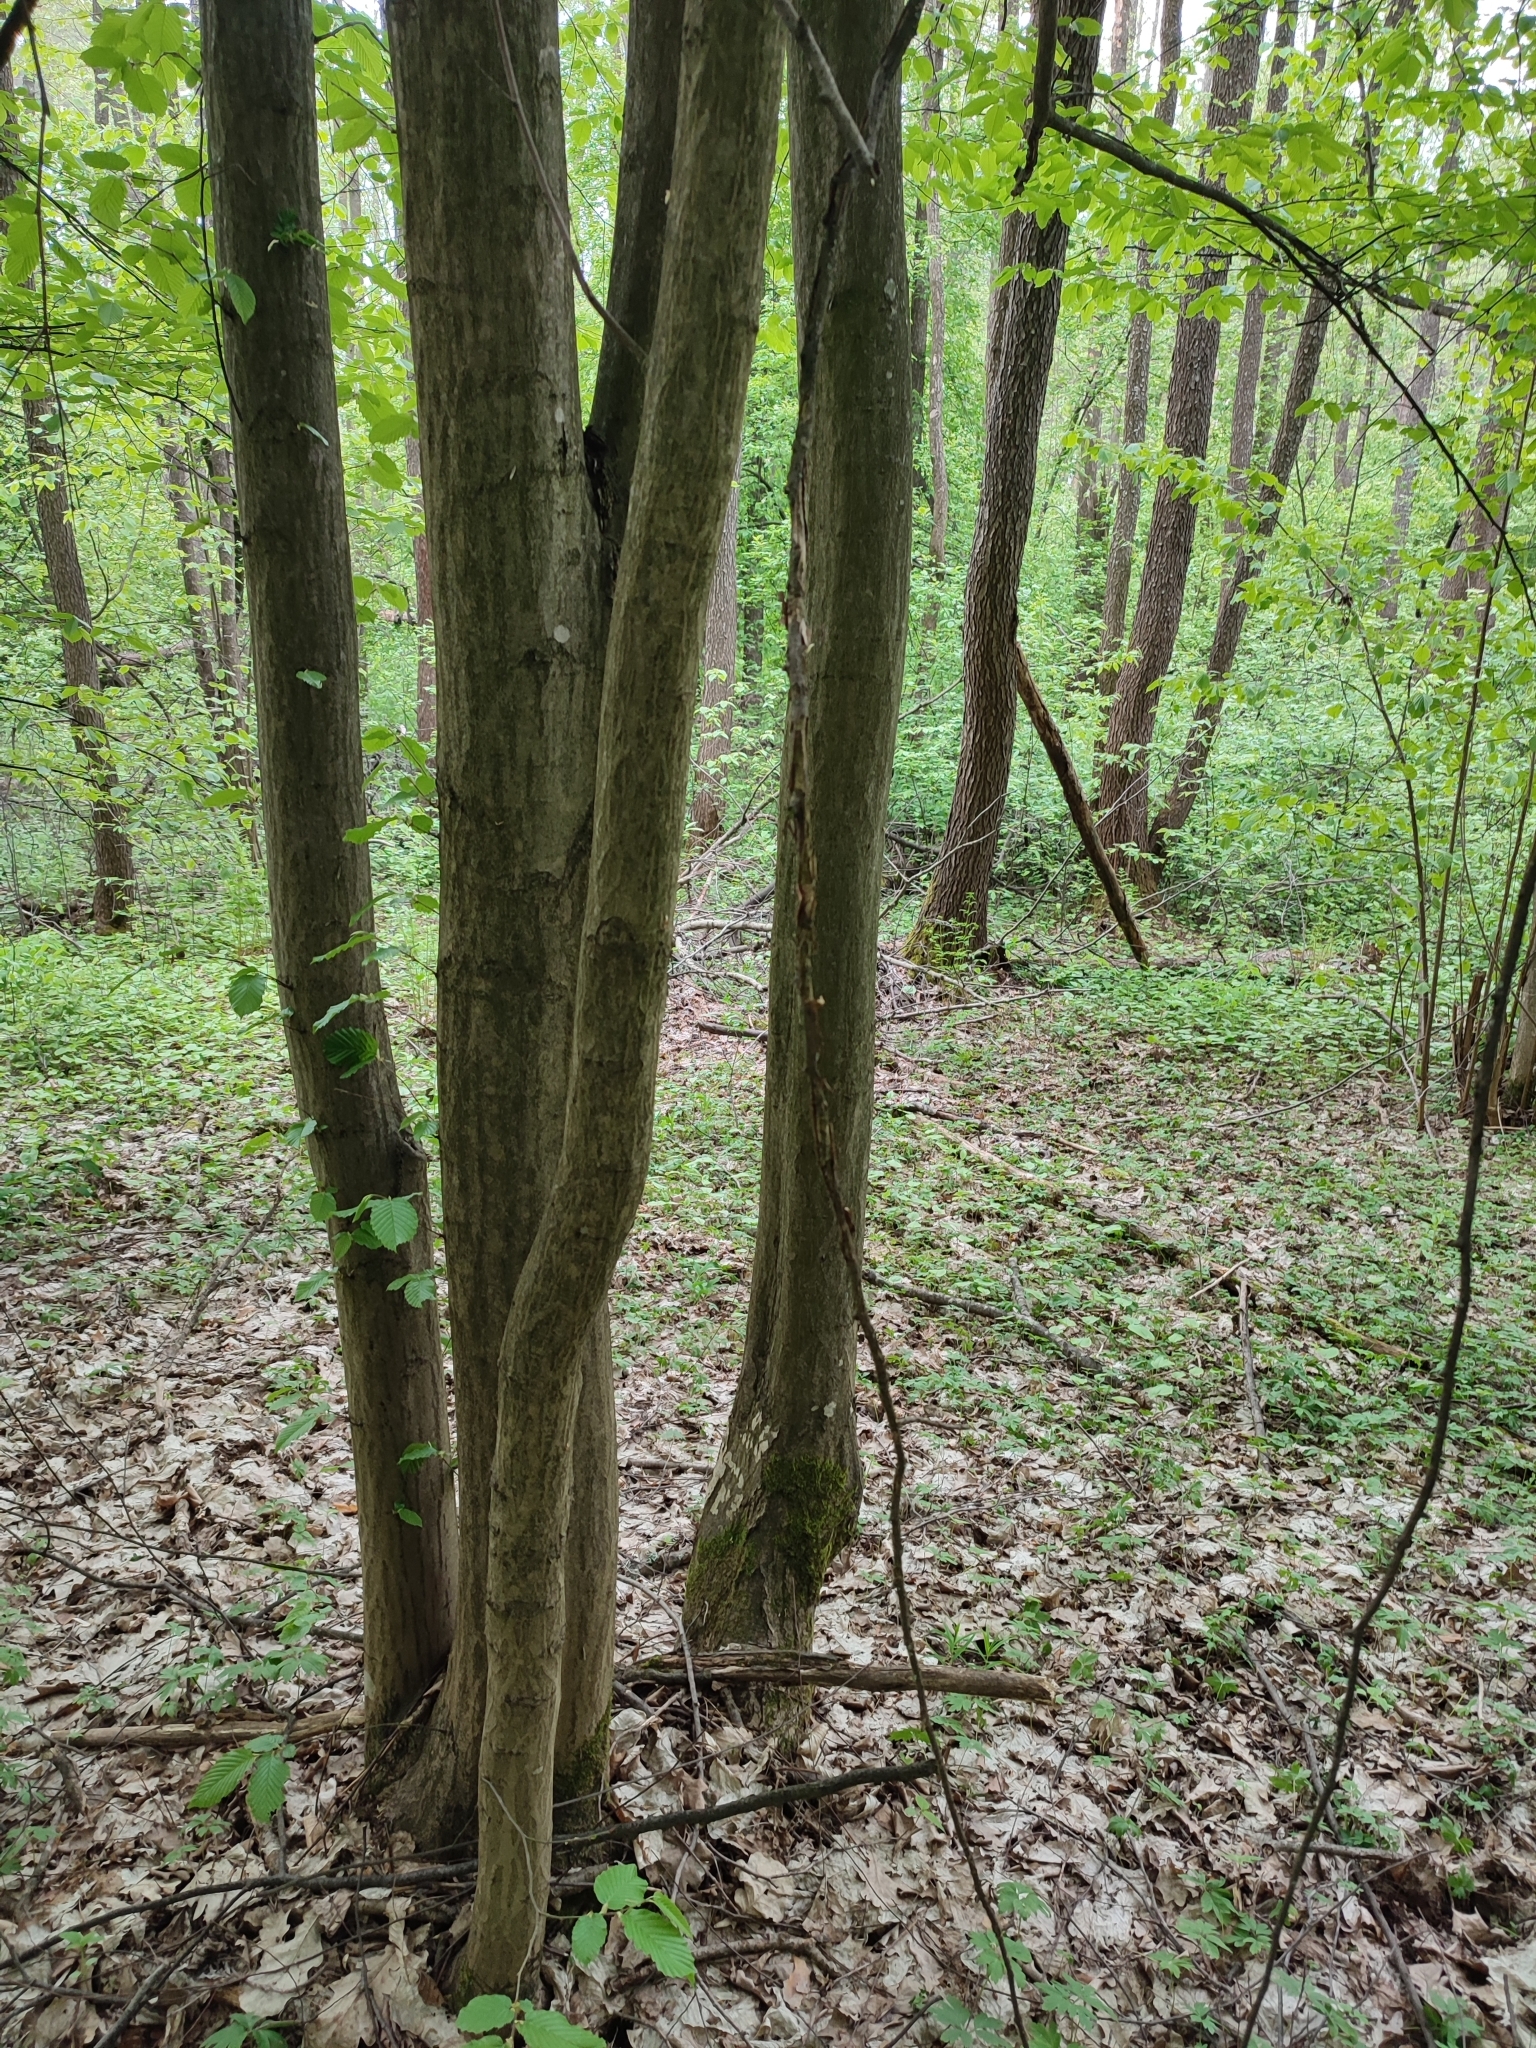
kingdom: Plantae
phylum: Tracheophyta
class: Magnoliopsida
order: Fagales
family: Betulaceae
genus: Carpinus
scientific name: Carpinus betulus
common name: Hornbeam
